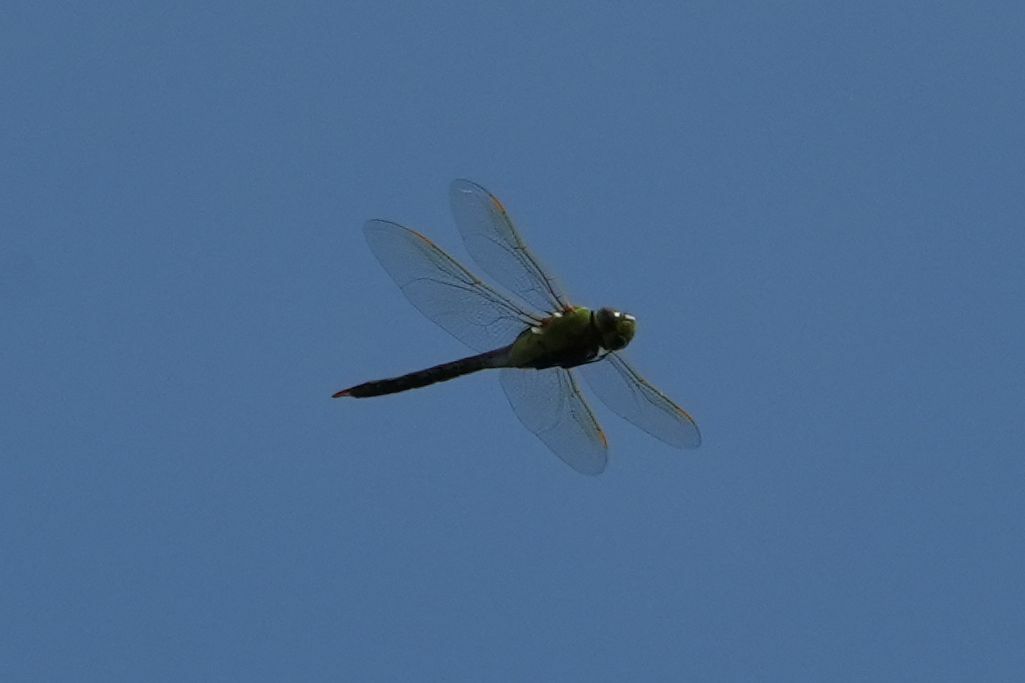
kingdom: Animalia
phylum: Arthropoda
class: Insecta
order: Odonata
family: Aeshnidae
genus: Anax
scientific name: Anax junius
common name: Common green darner
